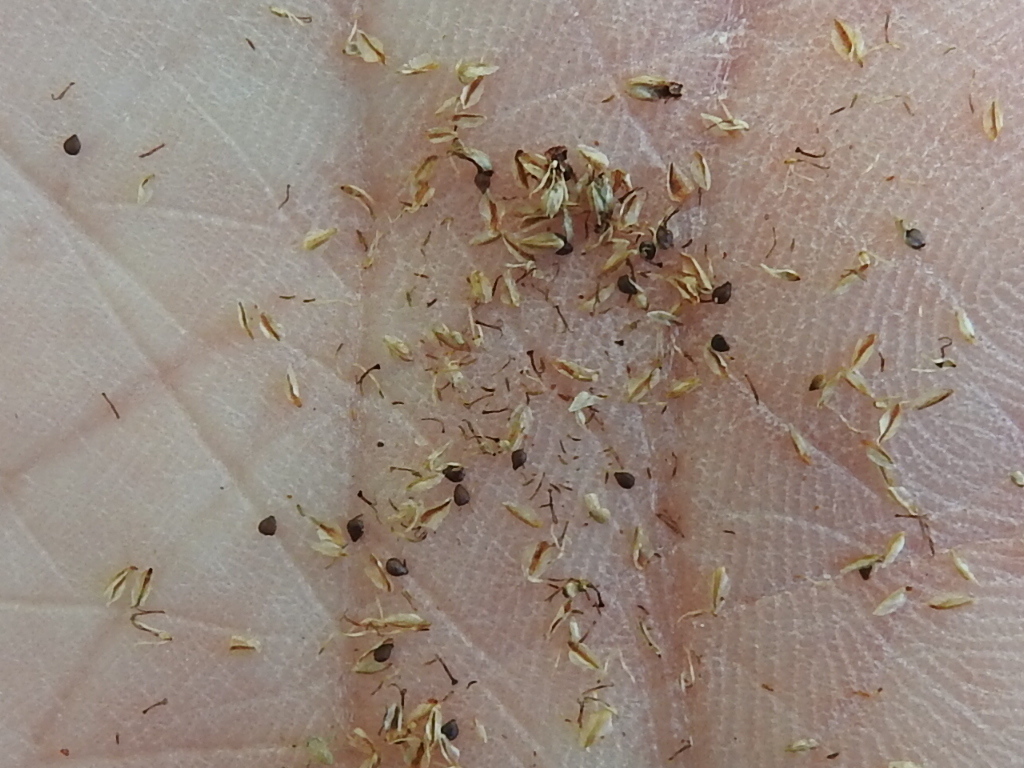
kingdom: Plantae
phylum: Tracheophyta
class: Liliopsida
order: Poales
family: Cyperaceae
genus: Fimbristylis
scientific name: Fimbristylis cymosa
